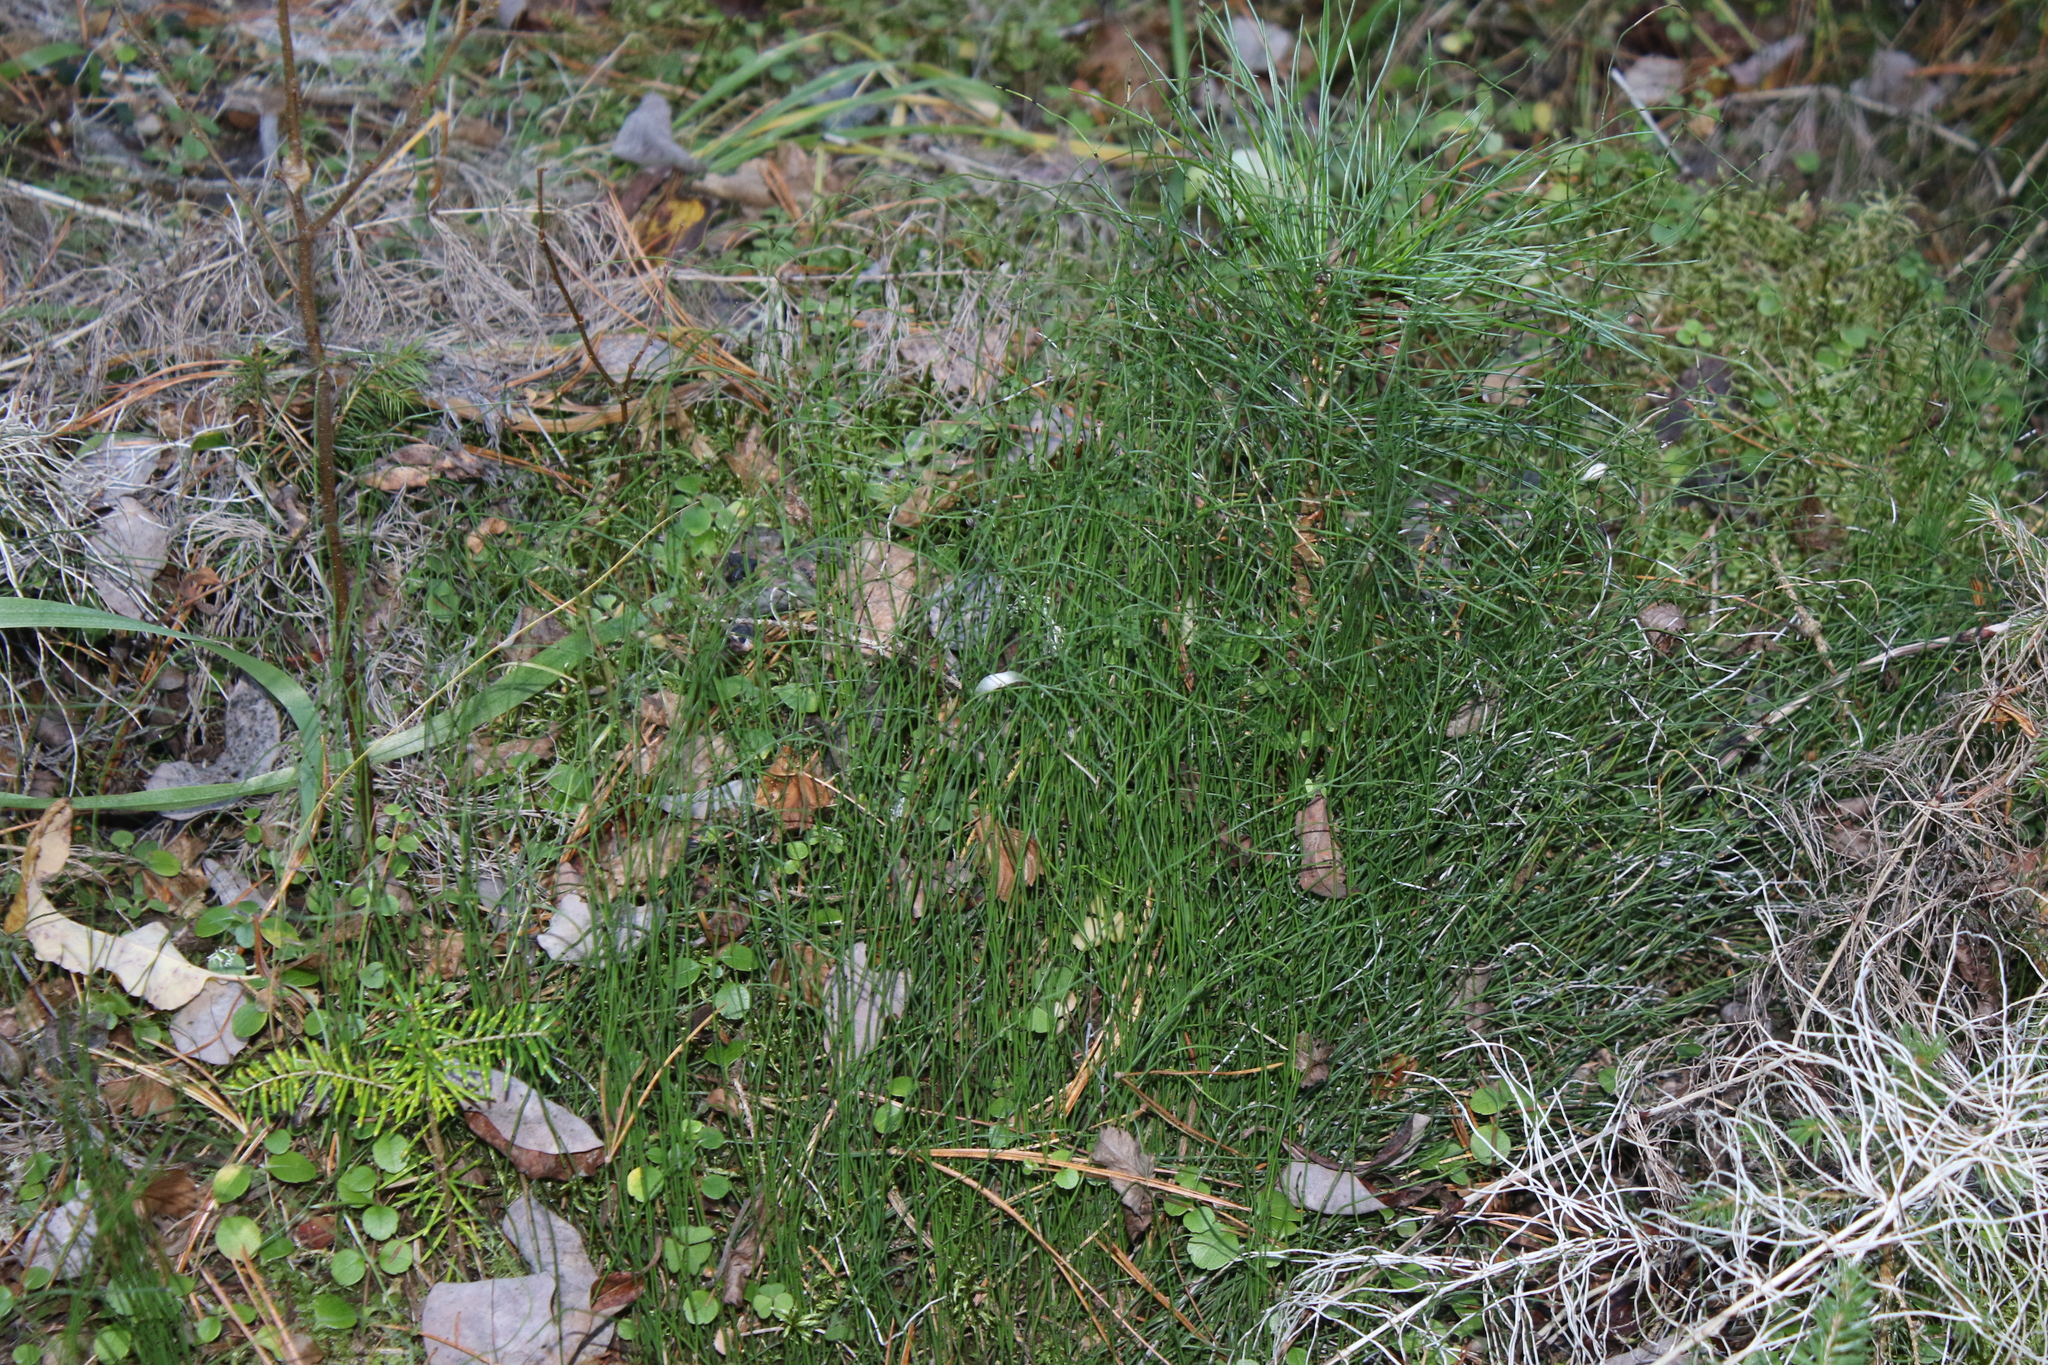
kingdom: Plantae
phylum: Tracheophyta
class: Polypodiopsida
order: Equisetales
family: Equisetaceae
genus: Equisetum
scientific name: Equisetum scirpoides
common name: Delicate horsetail
